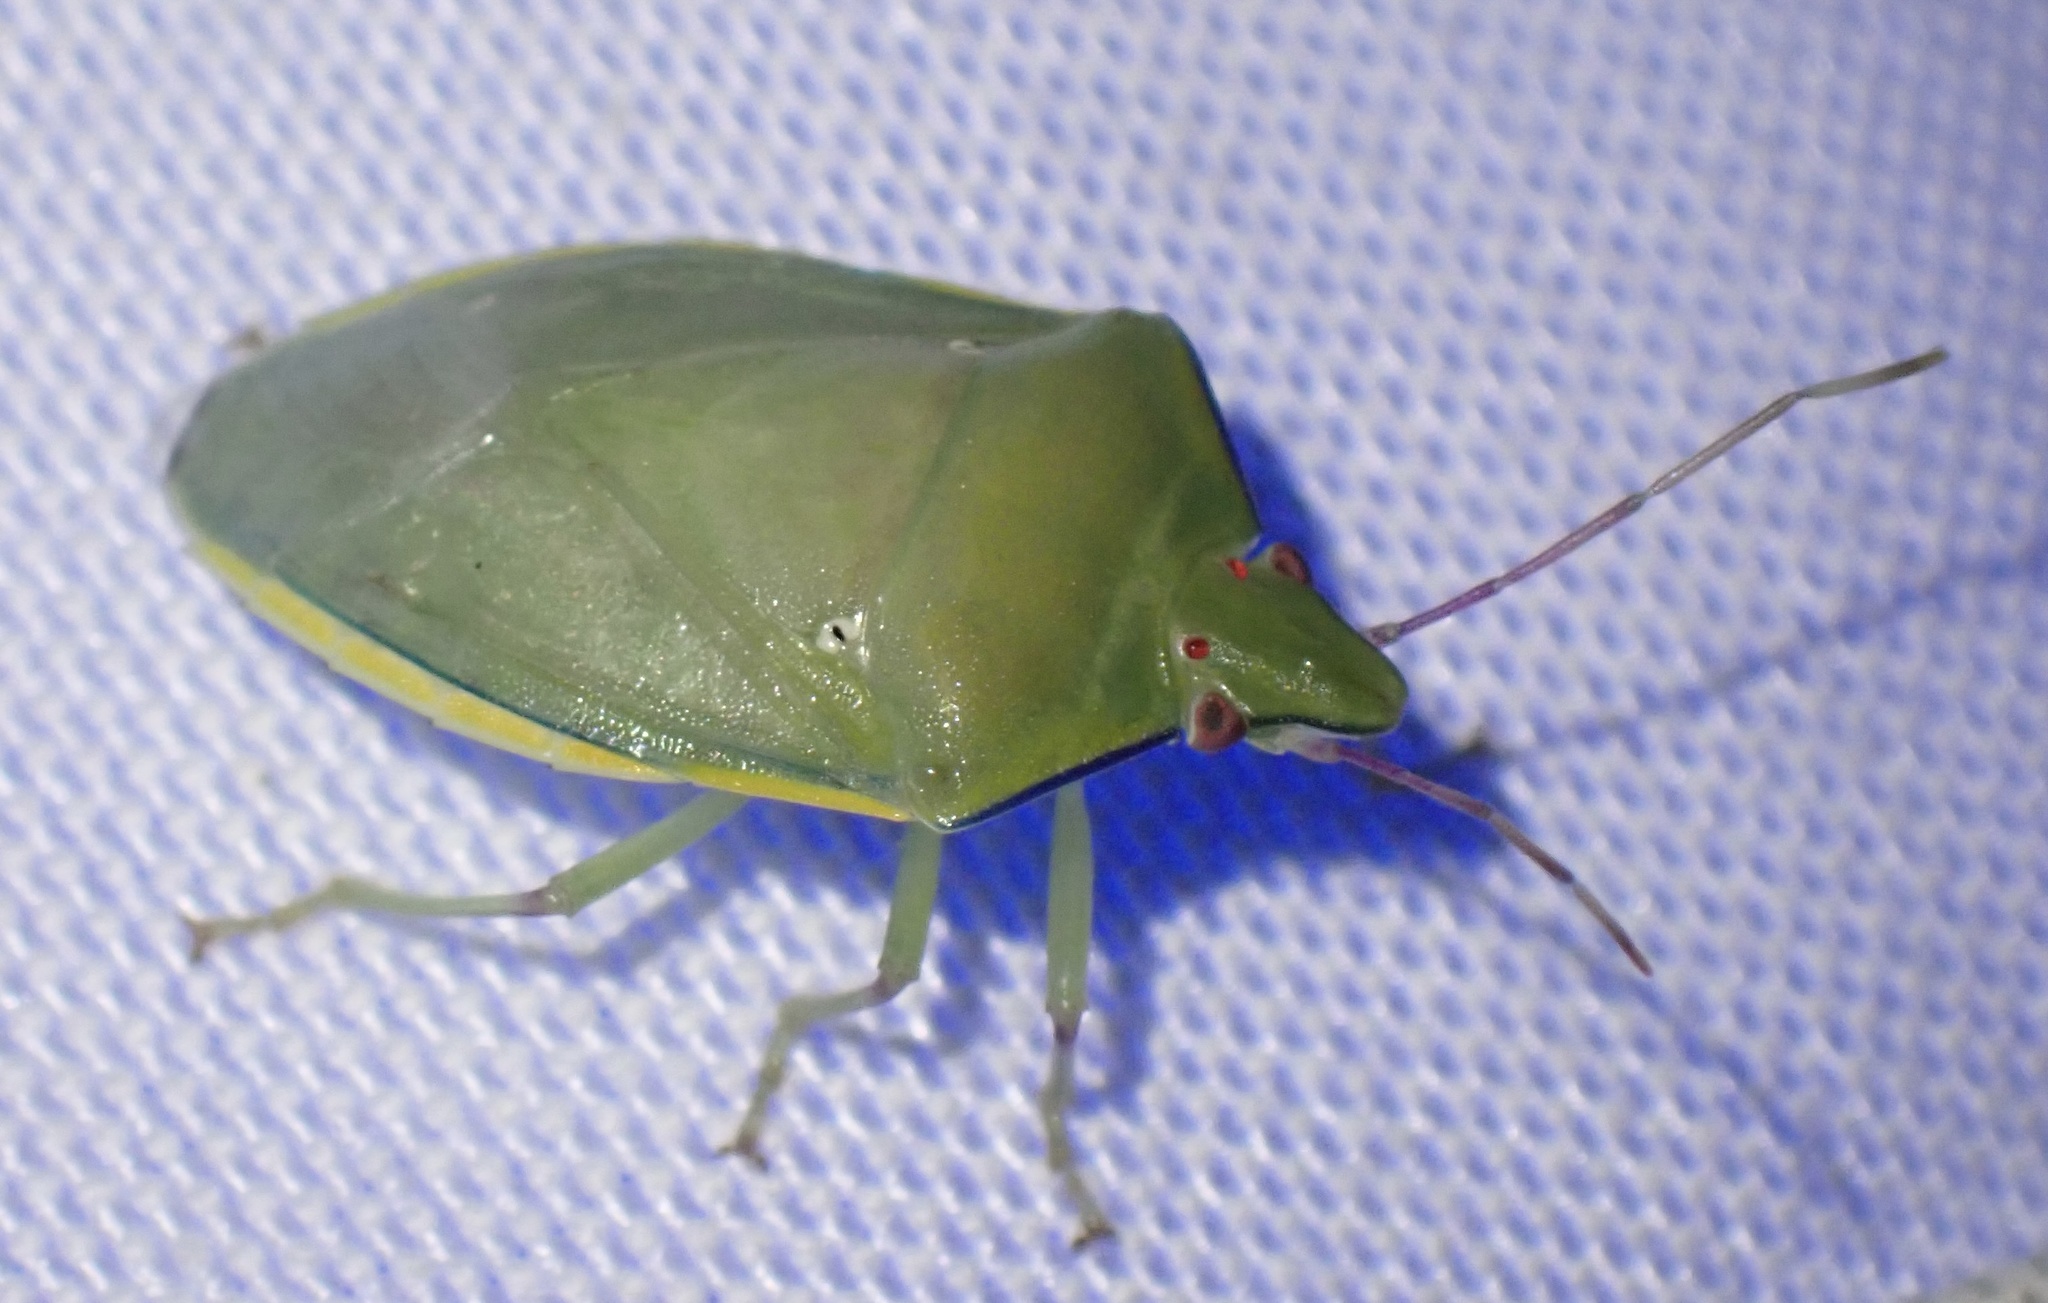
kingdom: Animalia
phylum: Arthropoda
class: Insecta
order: Hemiptera
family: Pentatomidae
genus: Bathycoelia
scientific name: Bathycoelia distincta
